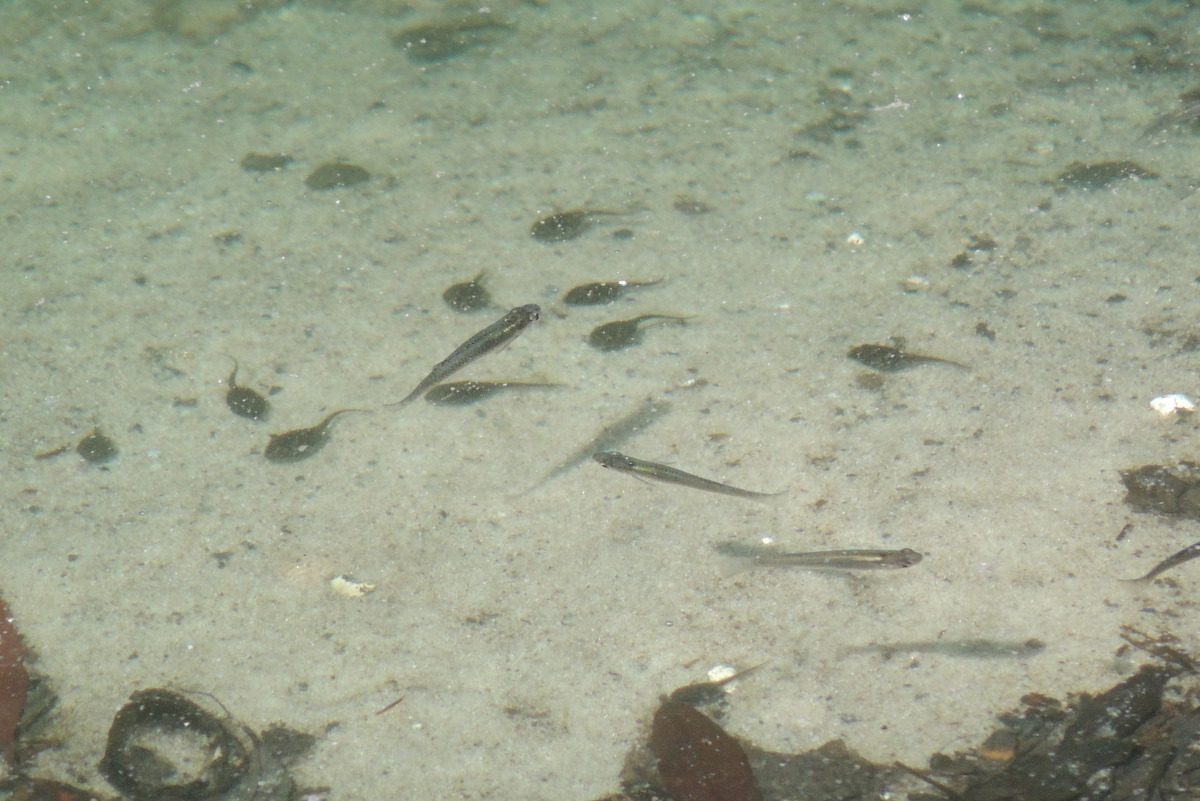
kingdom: Animalia
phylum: Chordata
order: Cyprinodontiformes
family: Poeciliidae
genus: Gambusia
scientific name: Gambusia holbrooki
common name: Eastern mosquitofish
